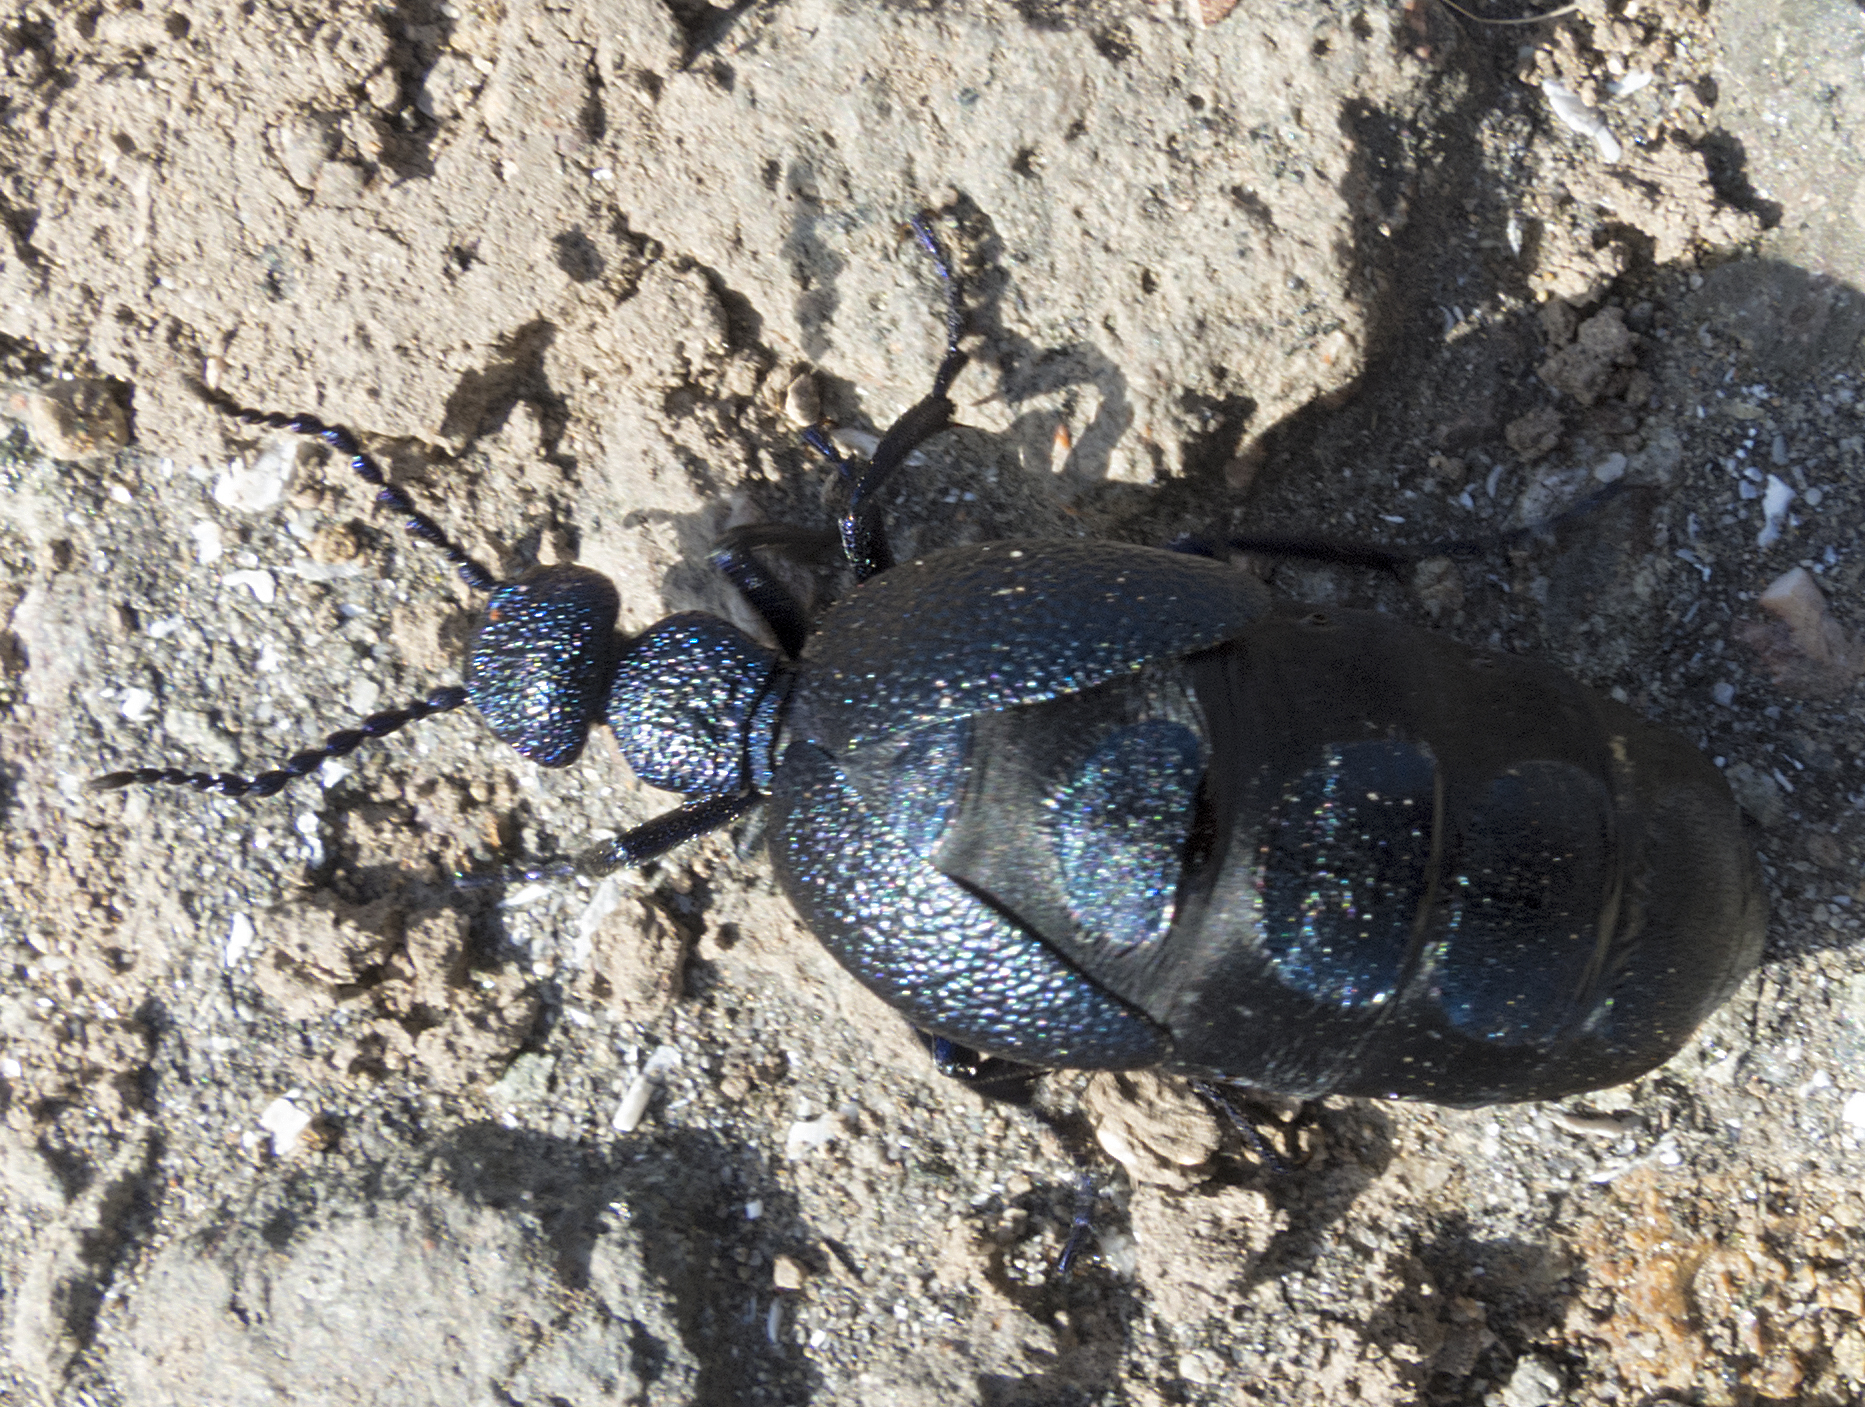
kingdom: Animalia
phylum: Arthropoda
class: Insecta
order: Coleoptera
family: Meloidae
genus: Meloe
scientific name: Meloe proscarabaeus
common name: Black oil-beetle
